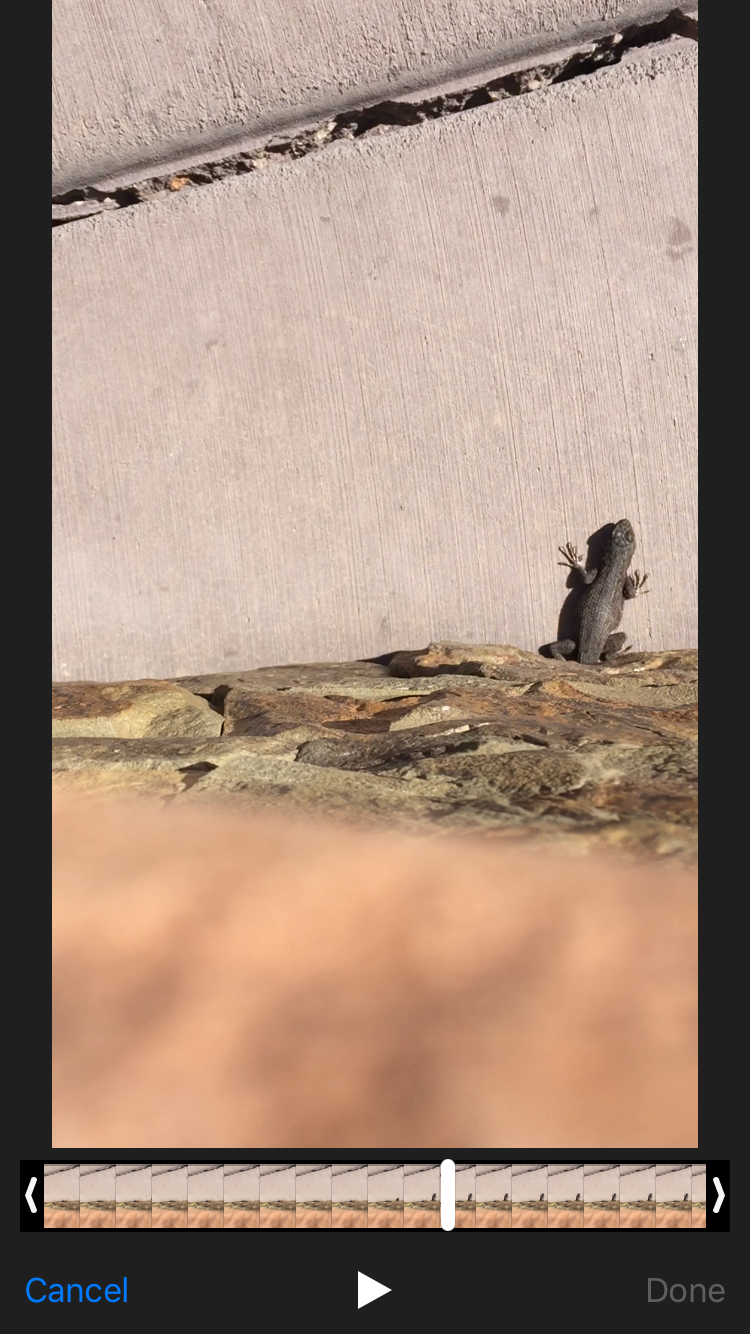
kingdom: Animalia
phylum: Chordata
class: Squamata
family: Phrynosomatidae
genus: Sceloporus
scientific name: Sceloporus tristichus
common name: Plateau fence lizard
